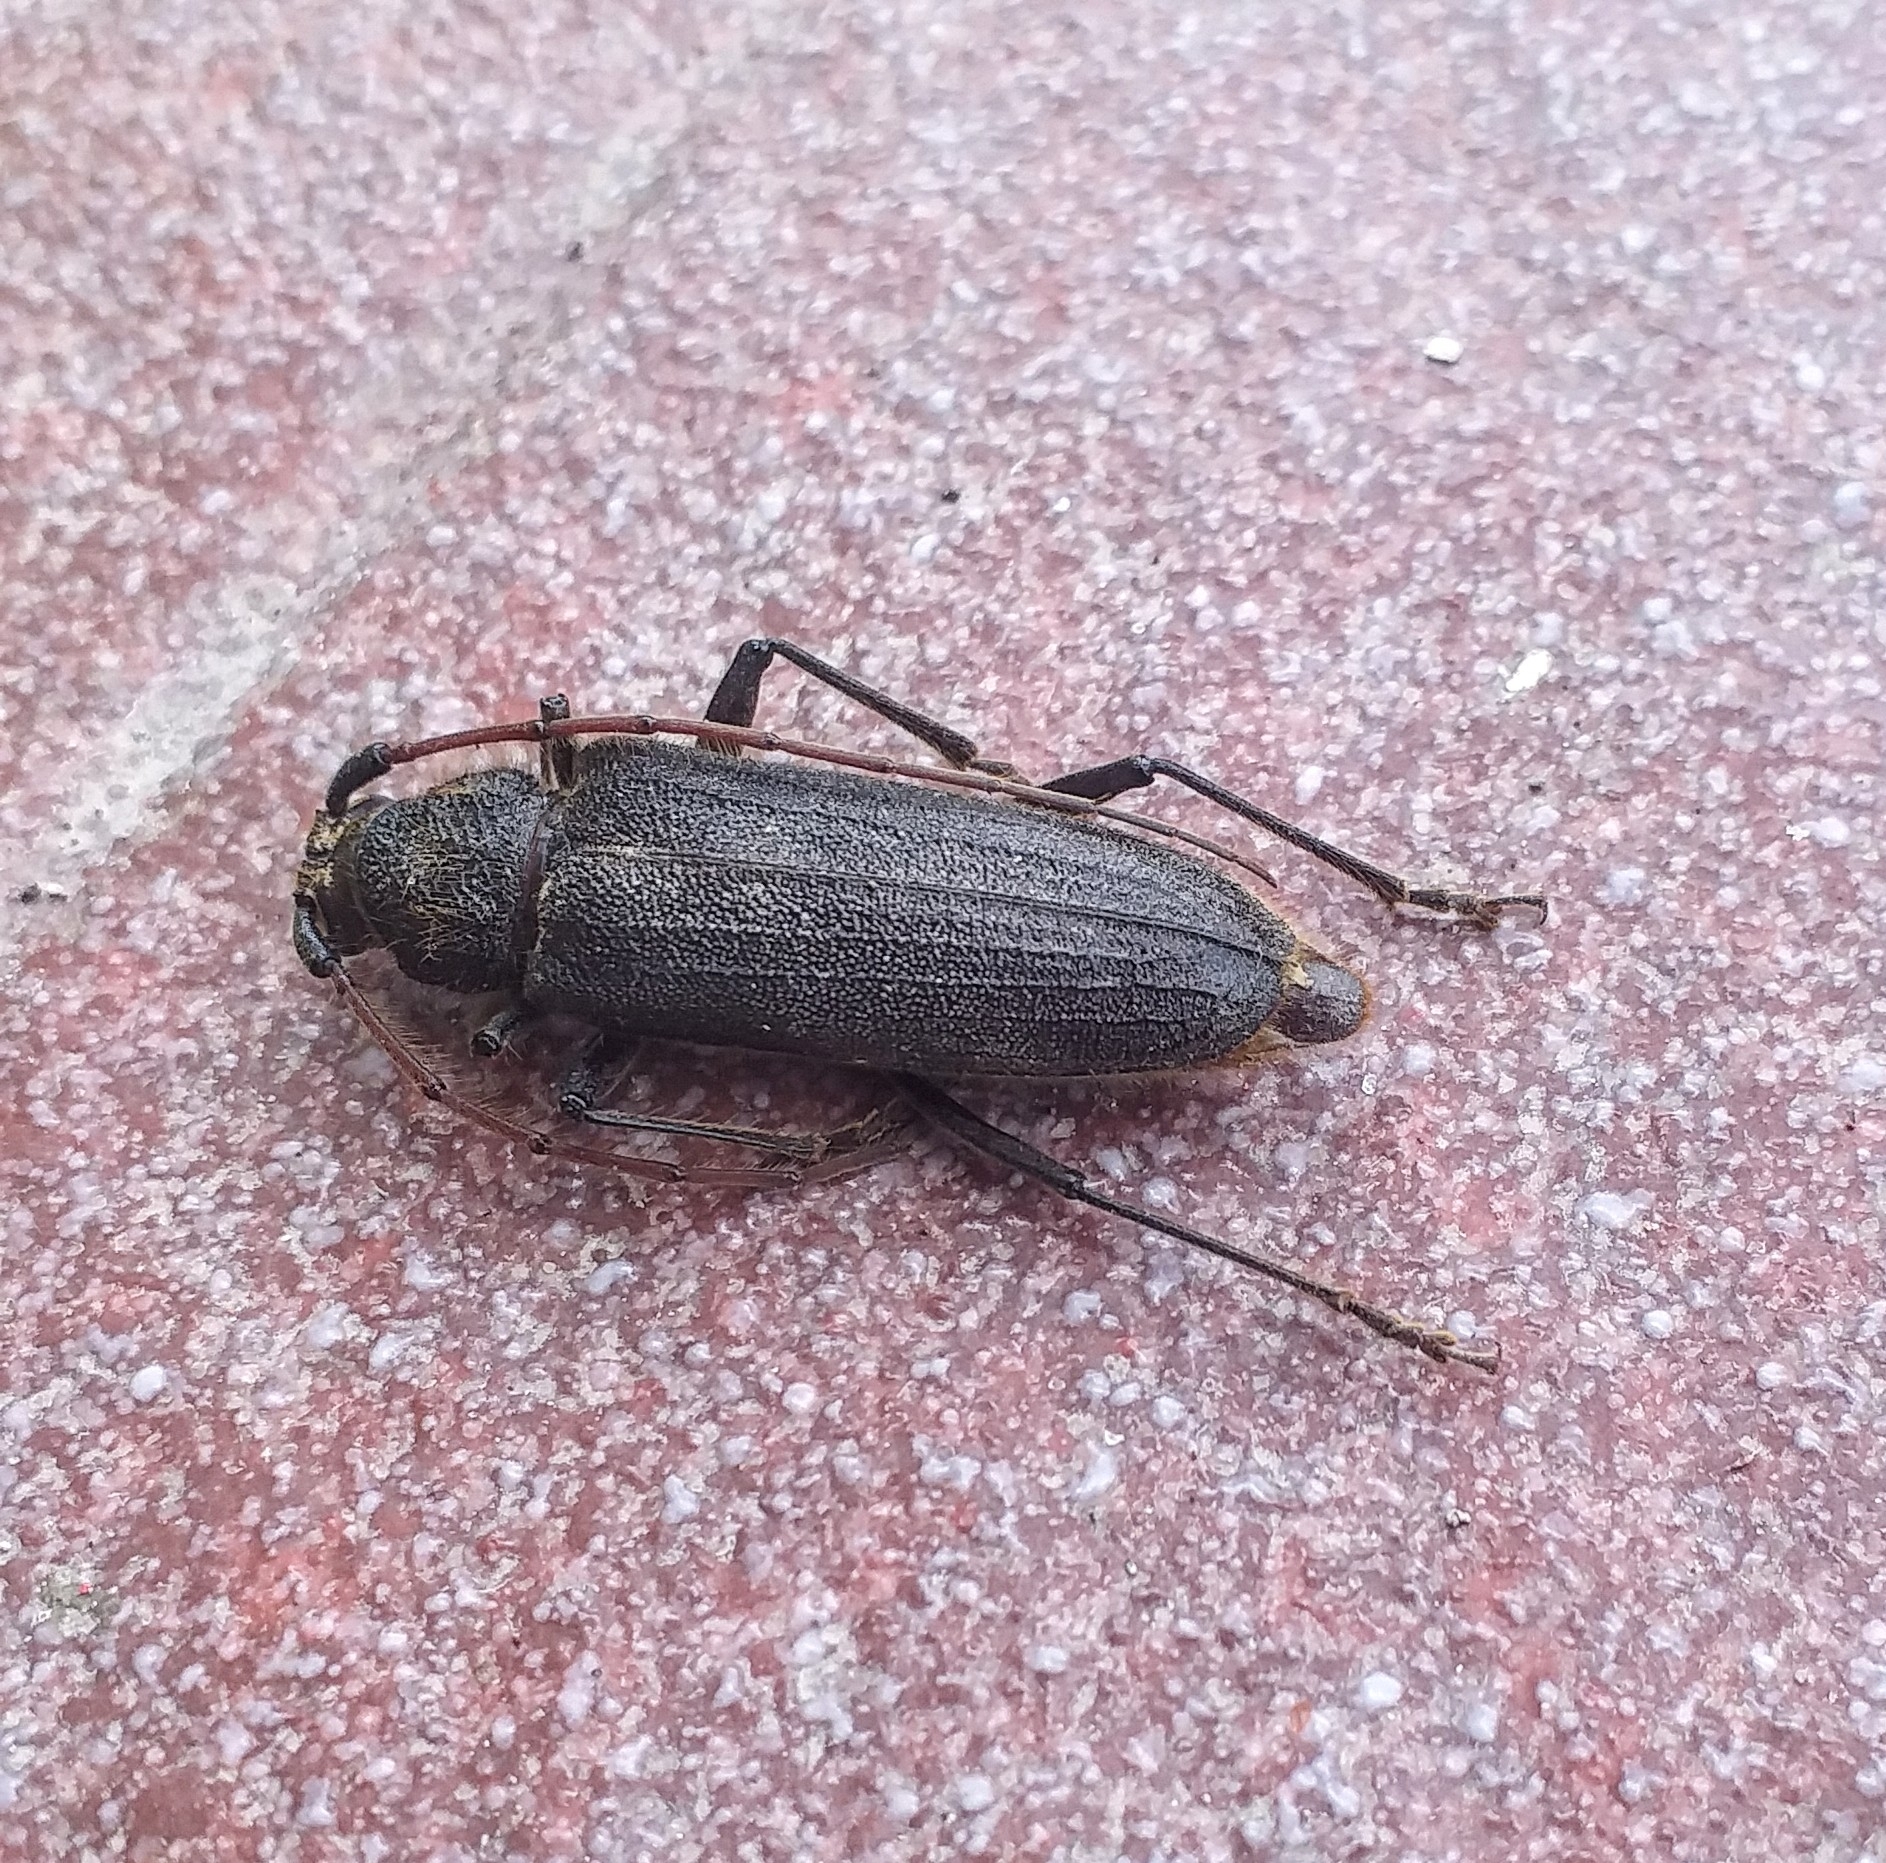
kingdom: Animalia
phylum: Arthropoda
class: Insecta
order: Coleoptera
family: Cerambycidae
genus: Stromatium
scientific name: Stromatium barbatum
